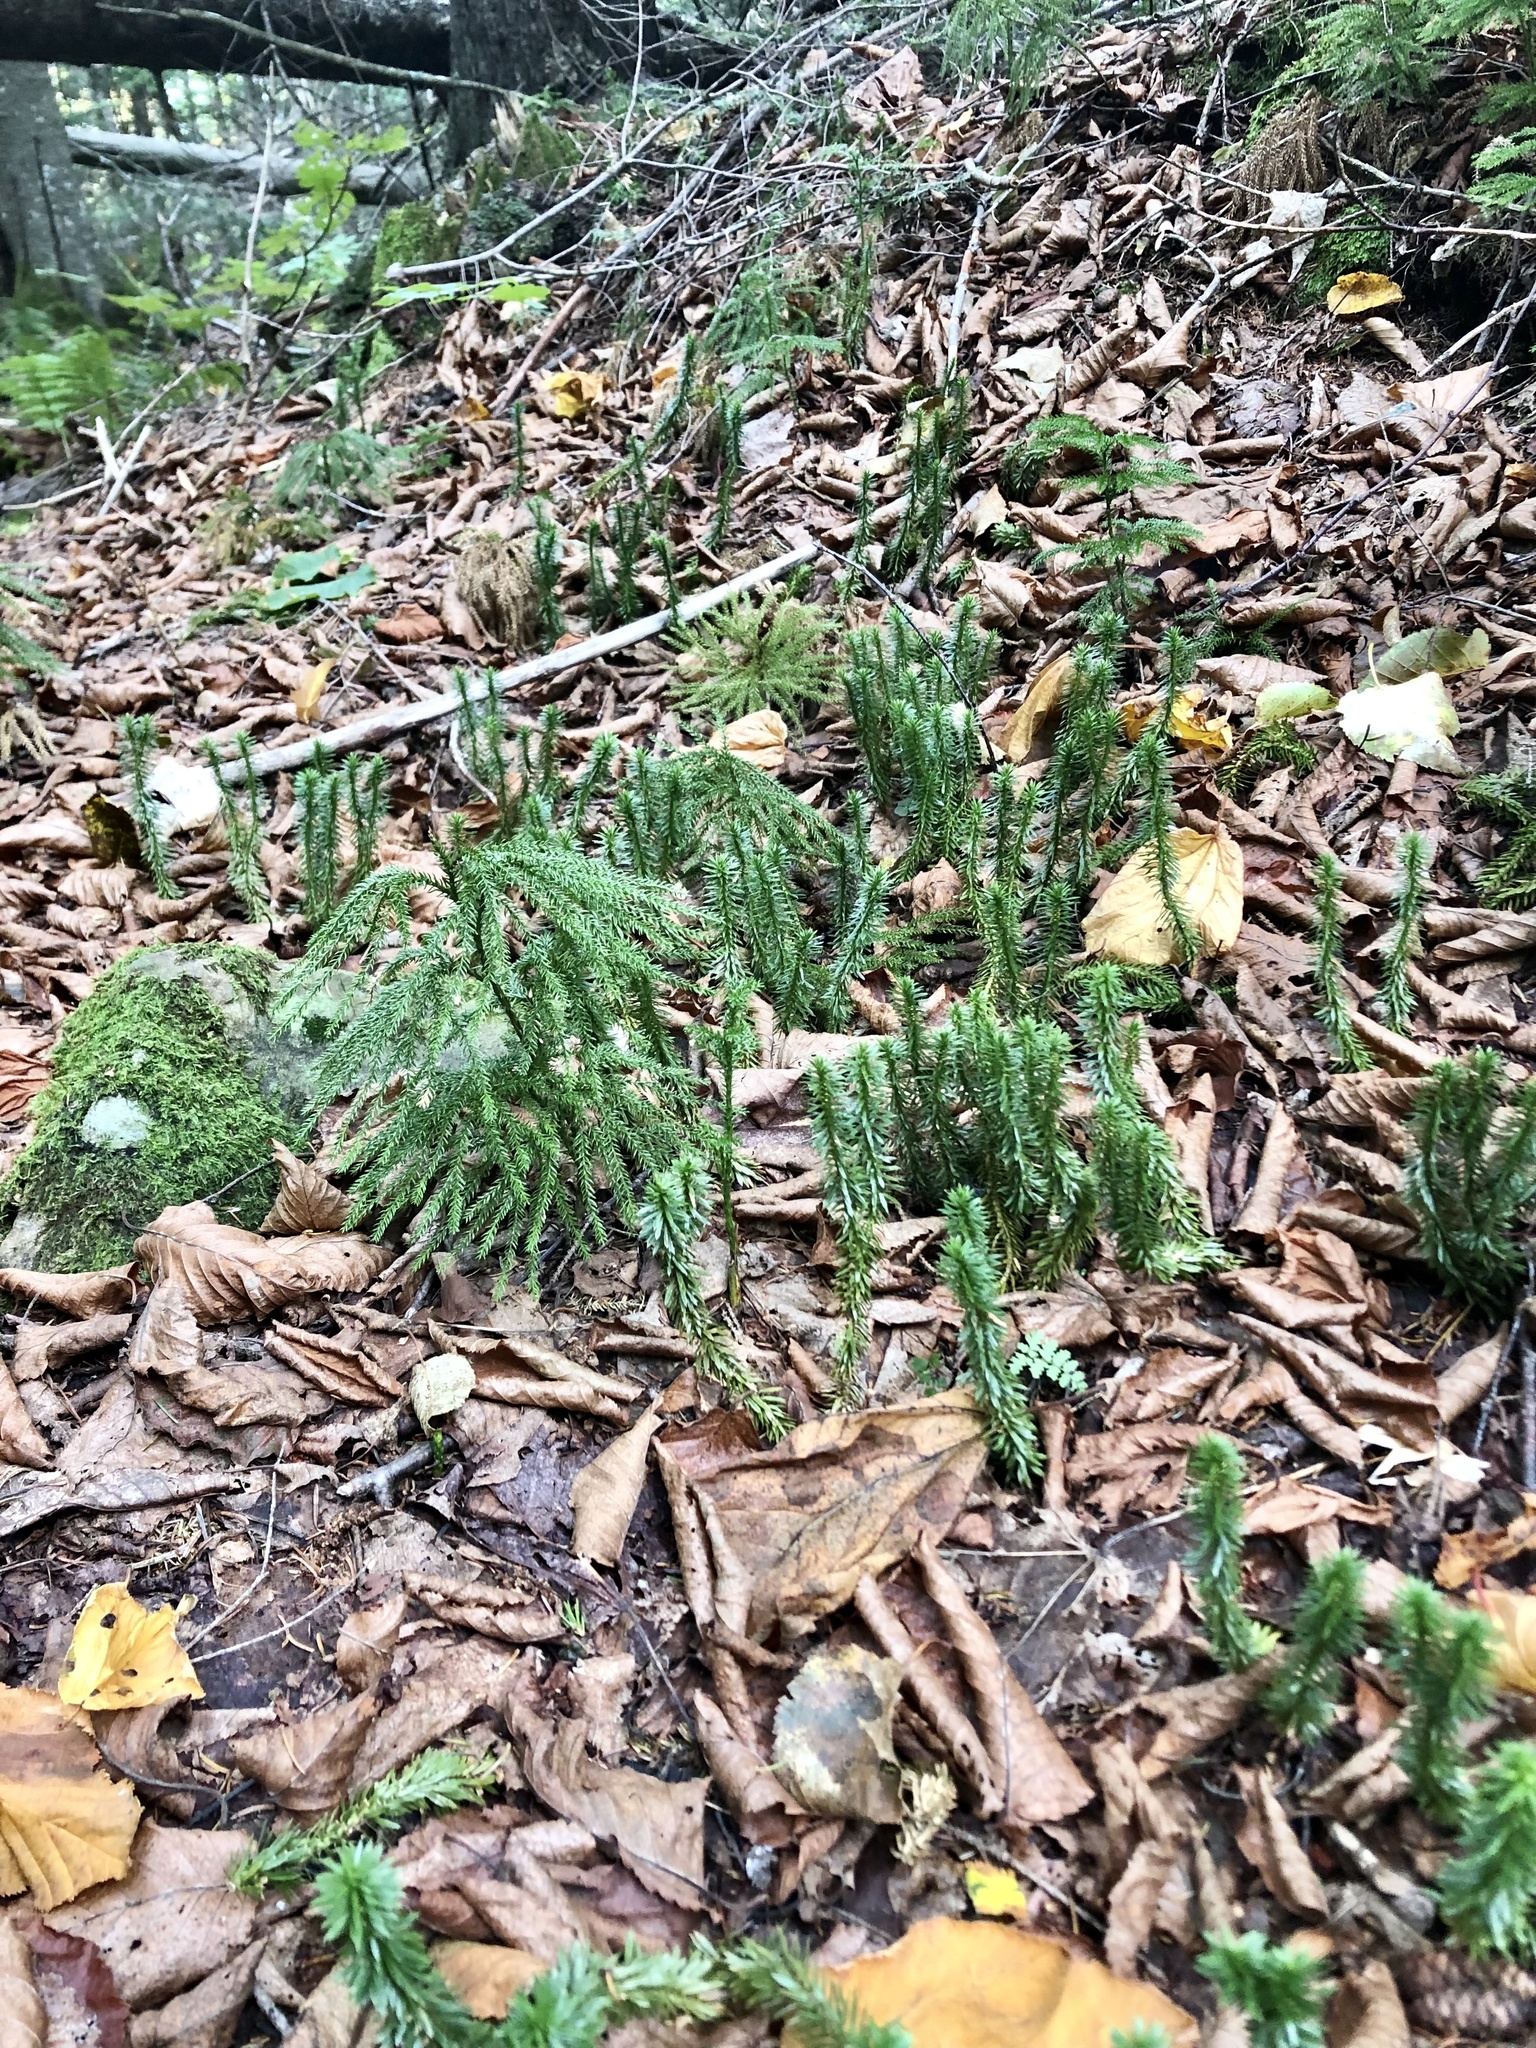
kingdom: Plantae
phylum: Tracheophyta
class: Lycopodiopsida
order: Lycopodiales
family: Lycopodiaceae
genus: Huperzia
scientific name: Huperzia lucidula
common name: Shining clubmoss
